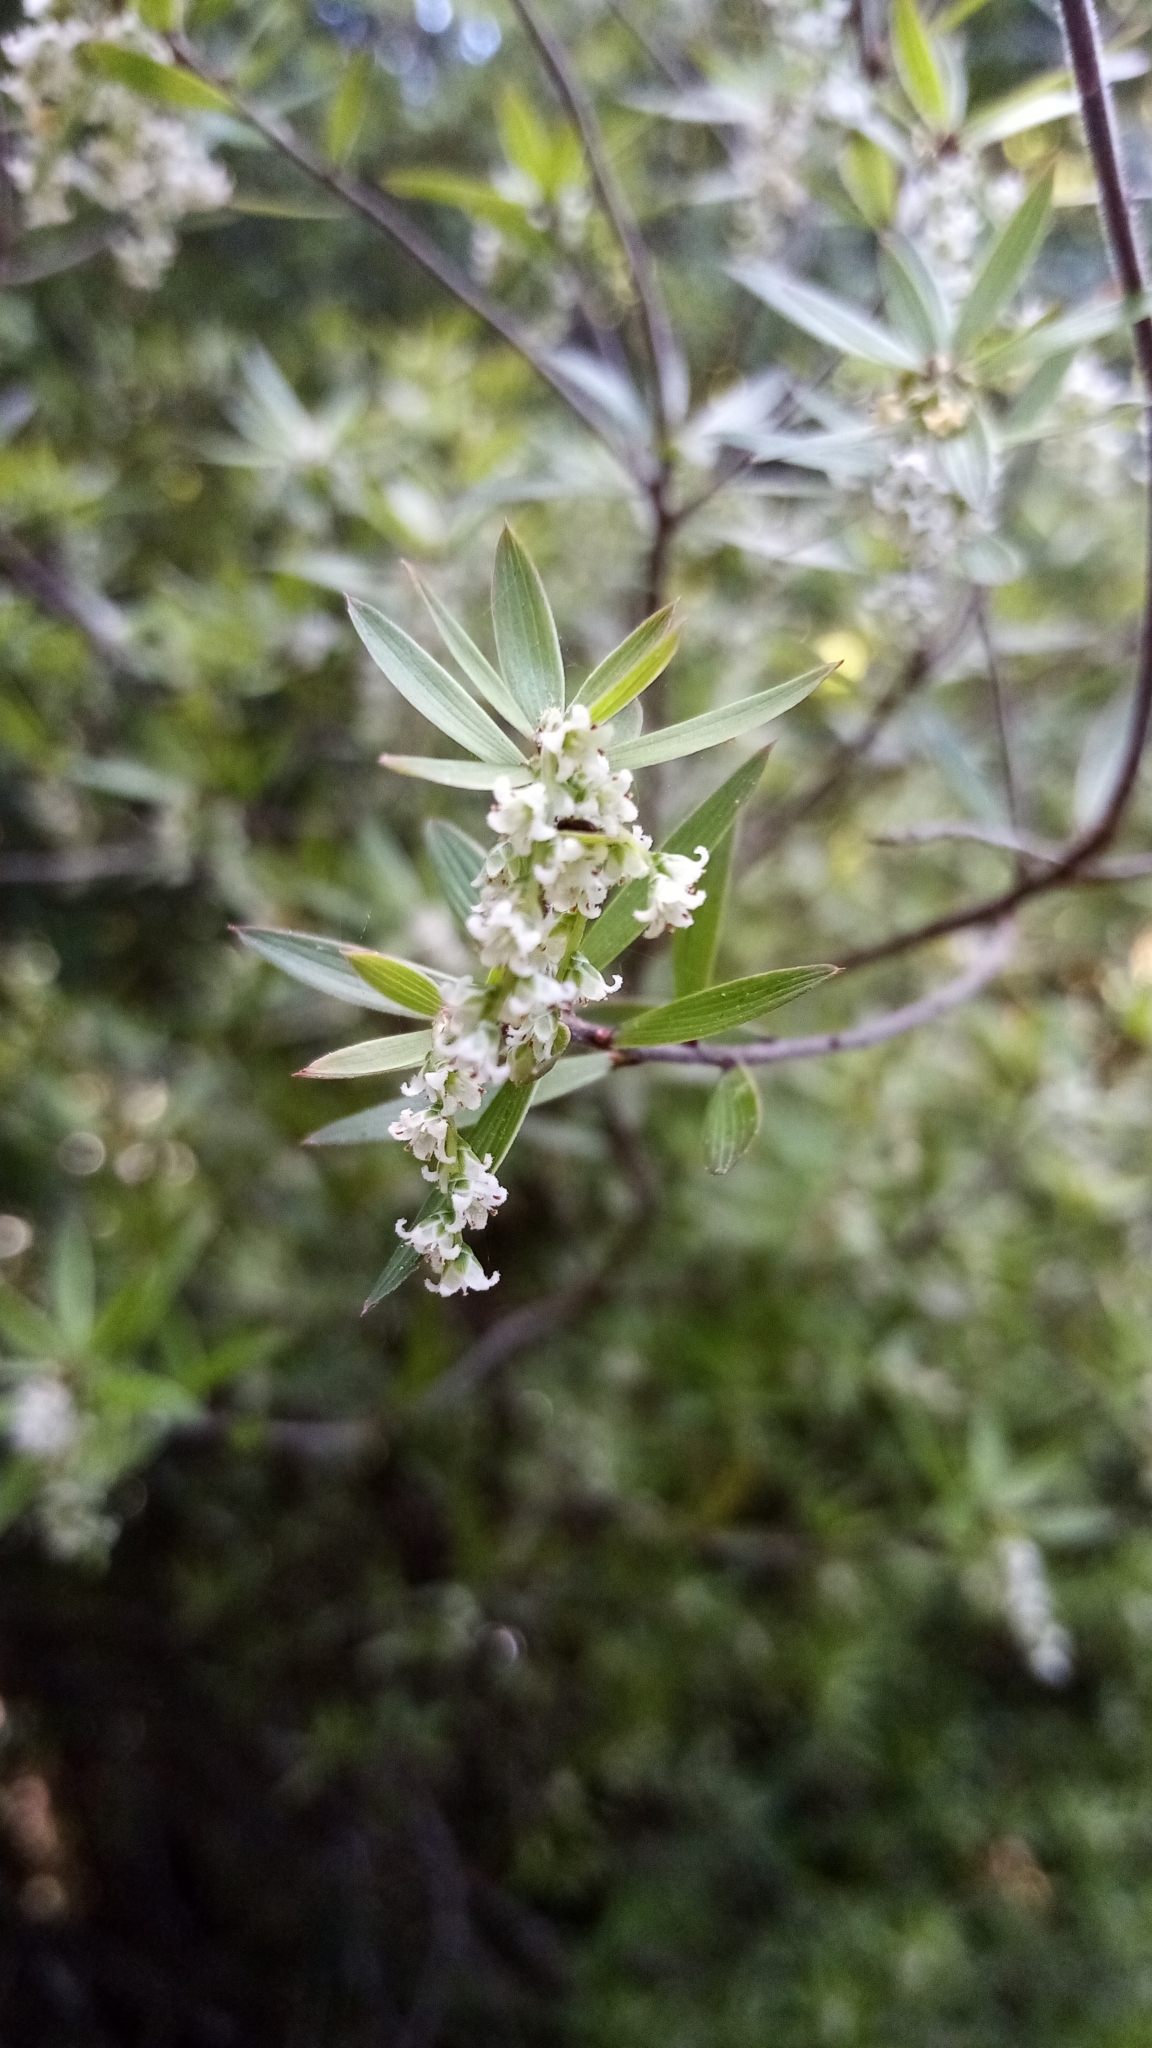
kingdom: Plantae
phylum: Tracheophyta
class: Magnoliopsida
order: Ericales
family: Ericaceae
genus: Leucopogon
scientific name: Leucopogon fasciculatus
